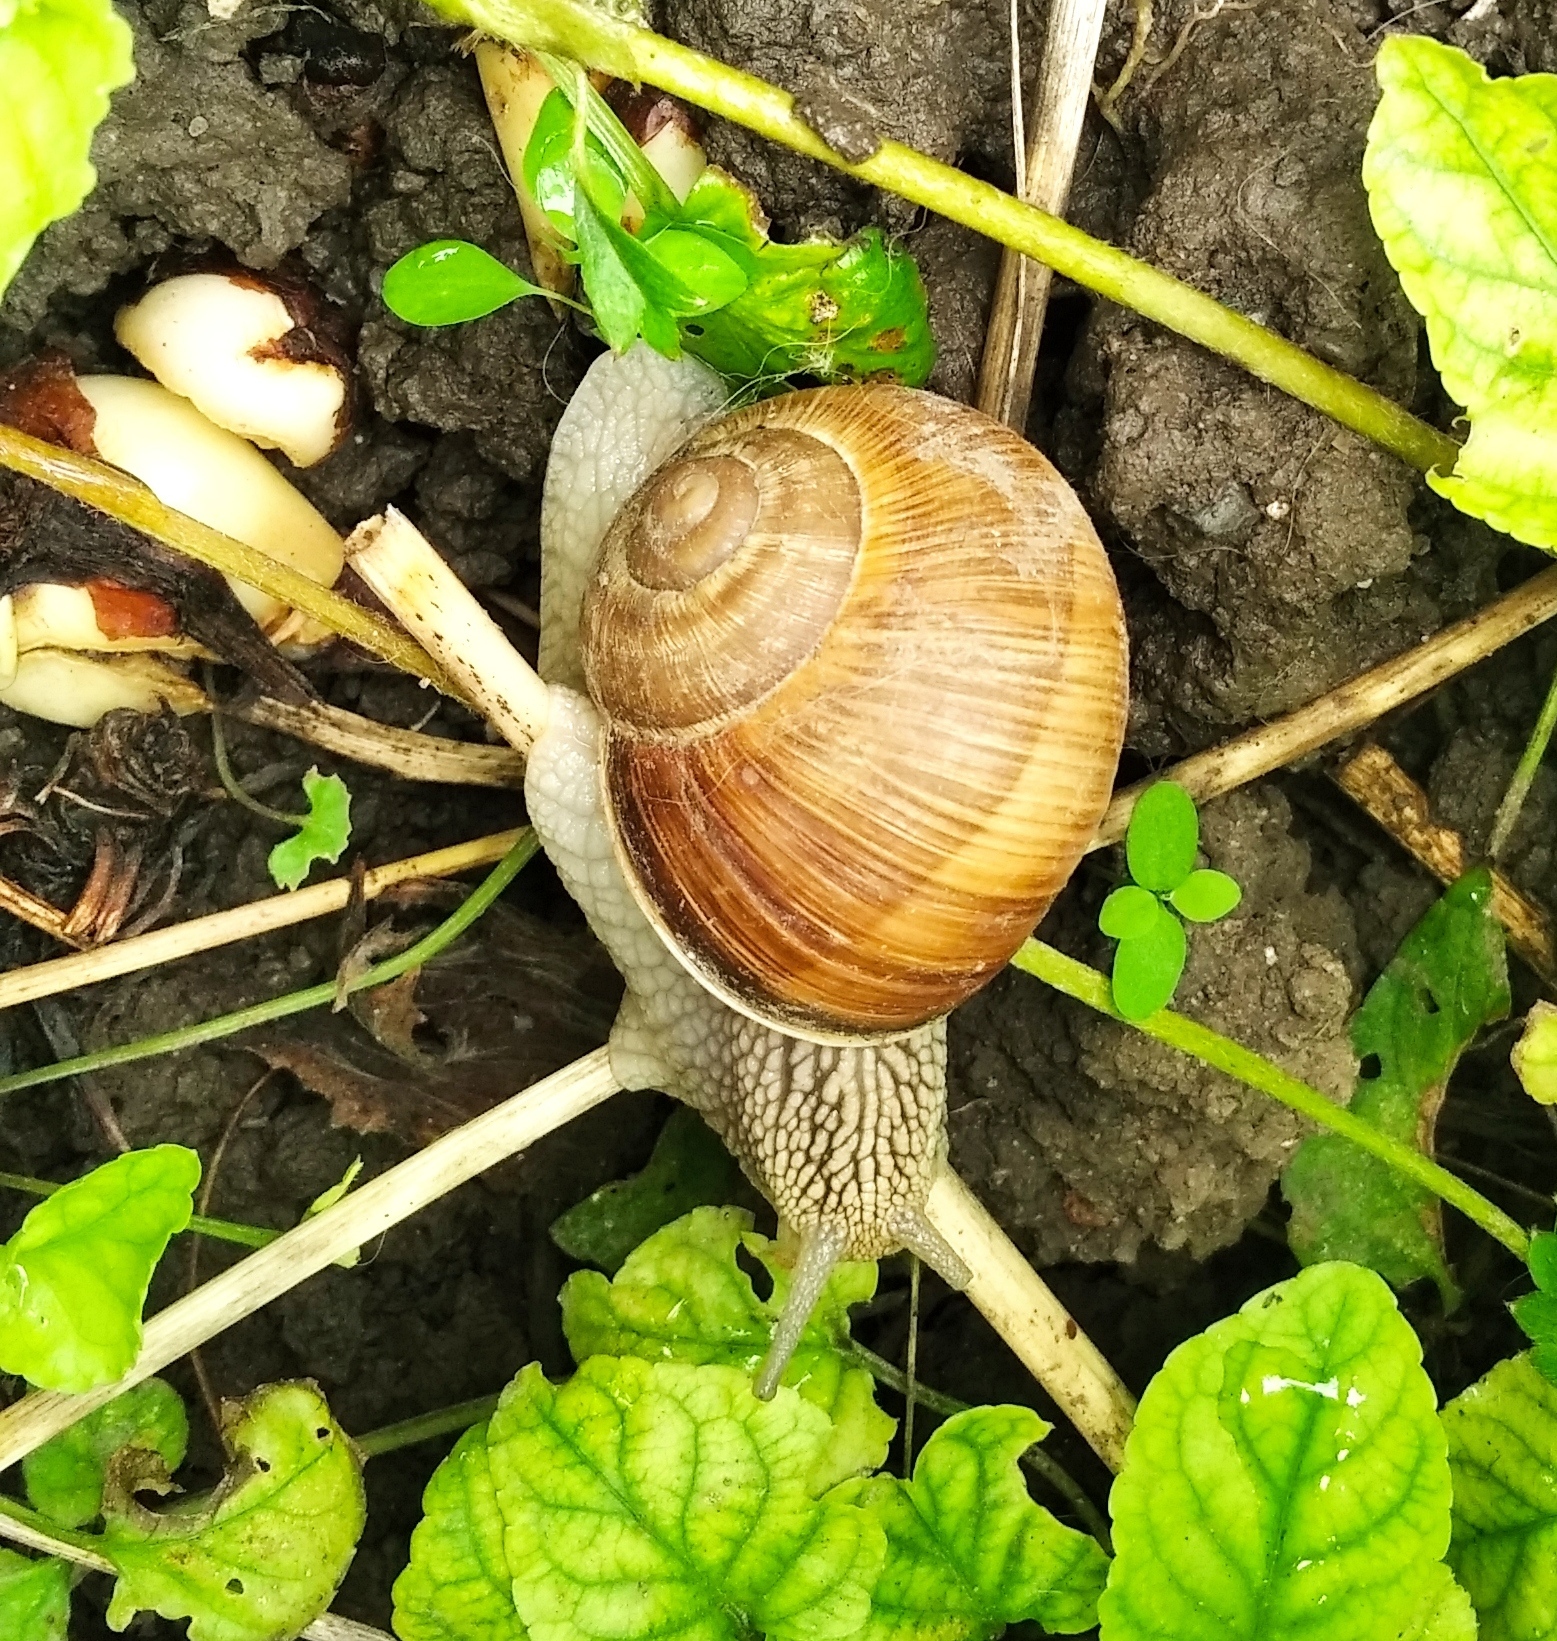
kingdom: Animalia
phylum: Mollusca
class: Gastropoda
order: Stylommatophora
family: Helicidae
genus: Helix
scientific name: Helix pomatia
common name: Roman snail
